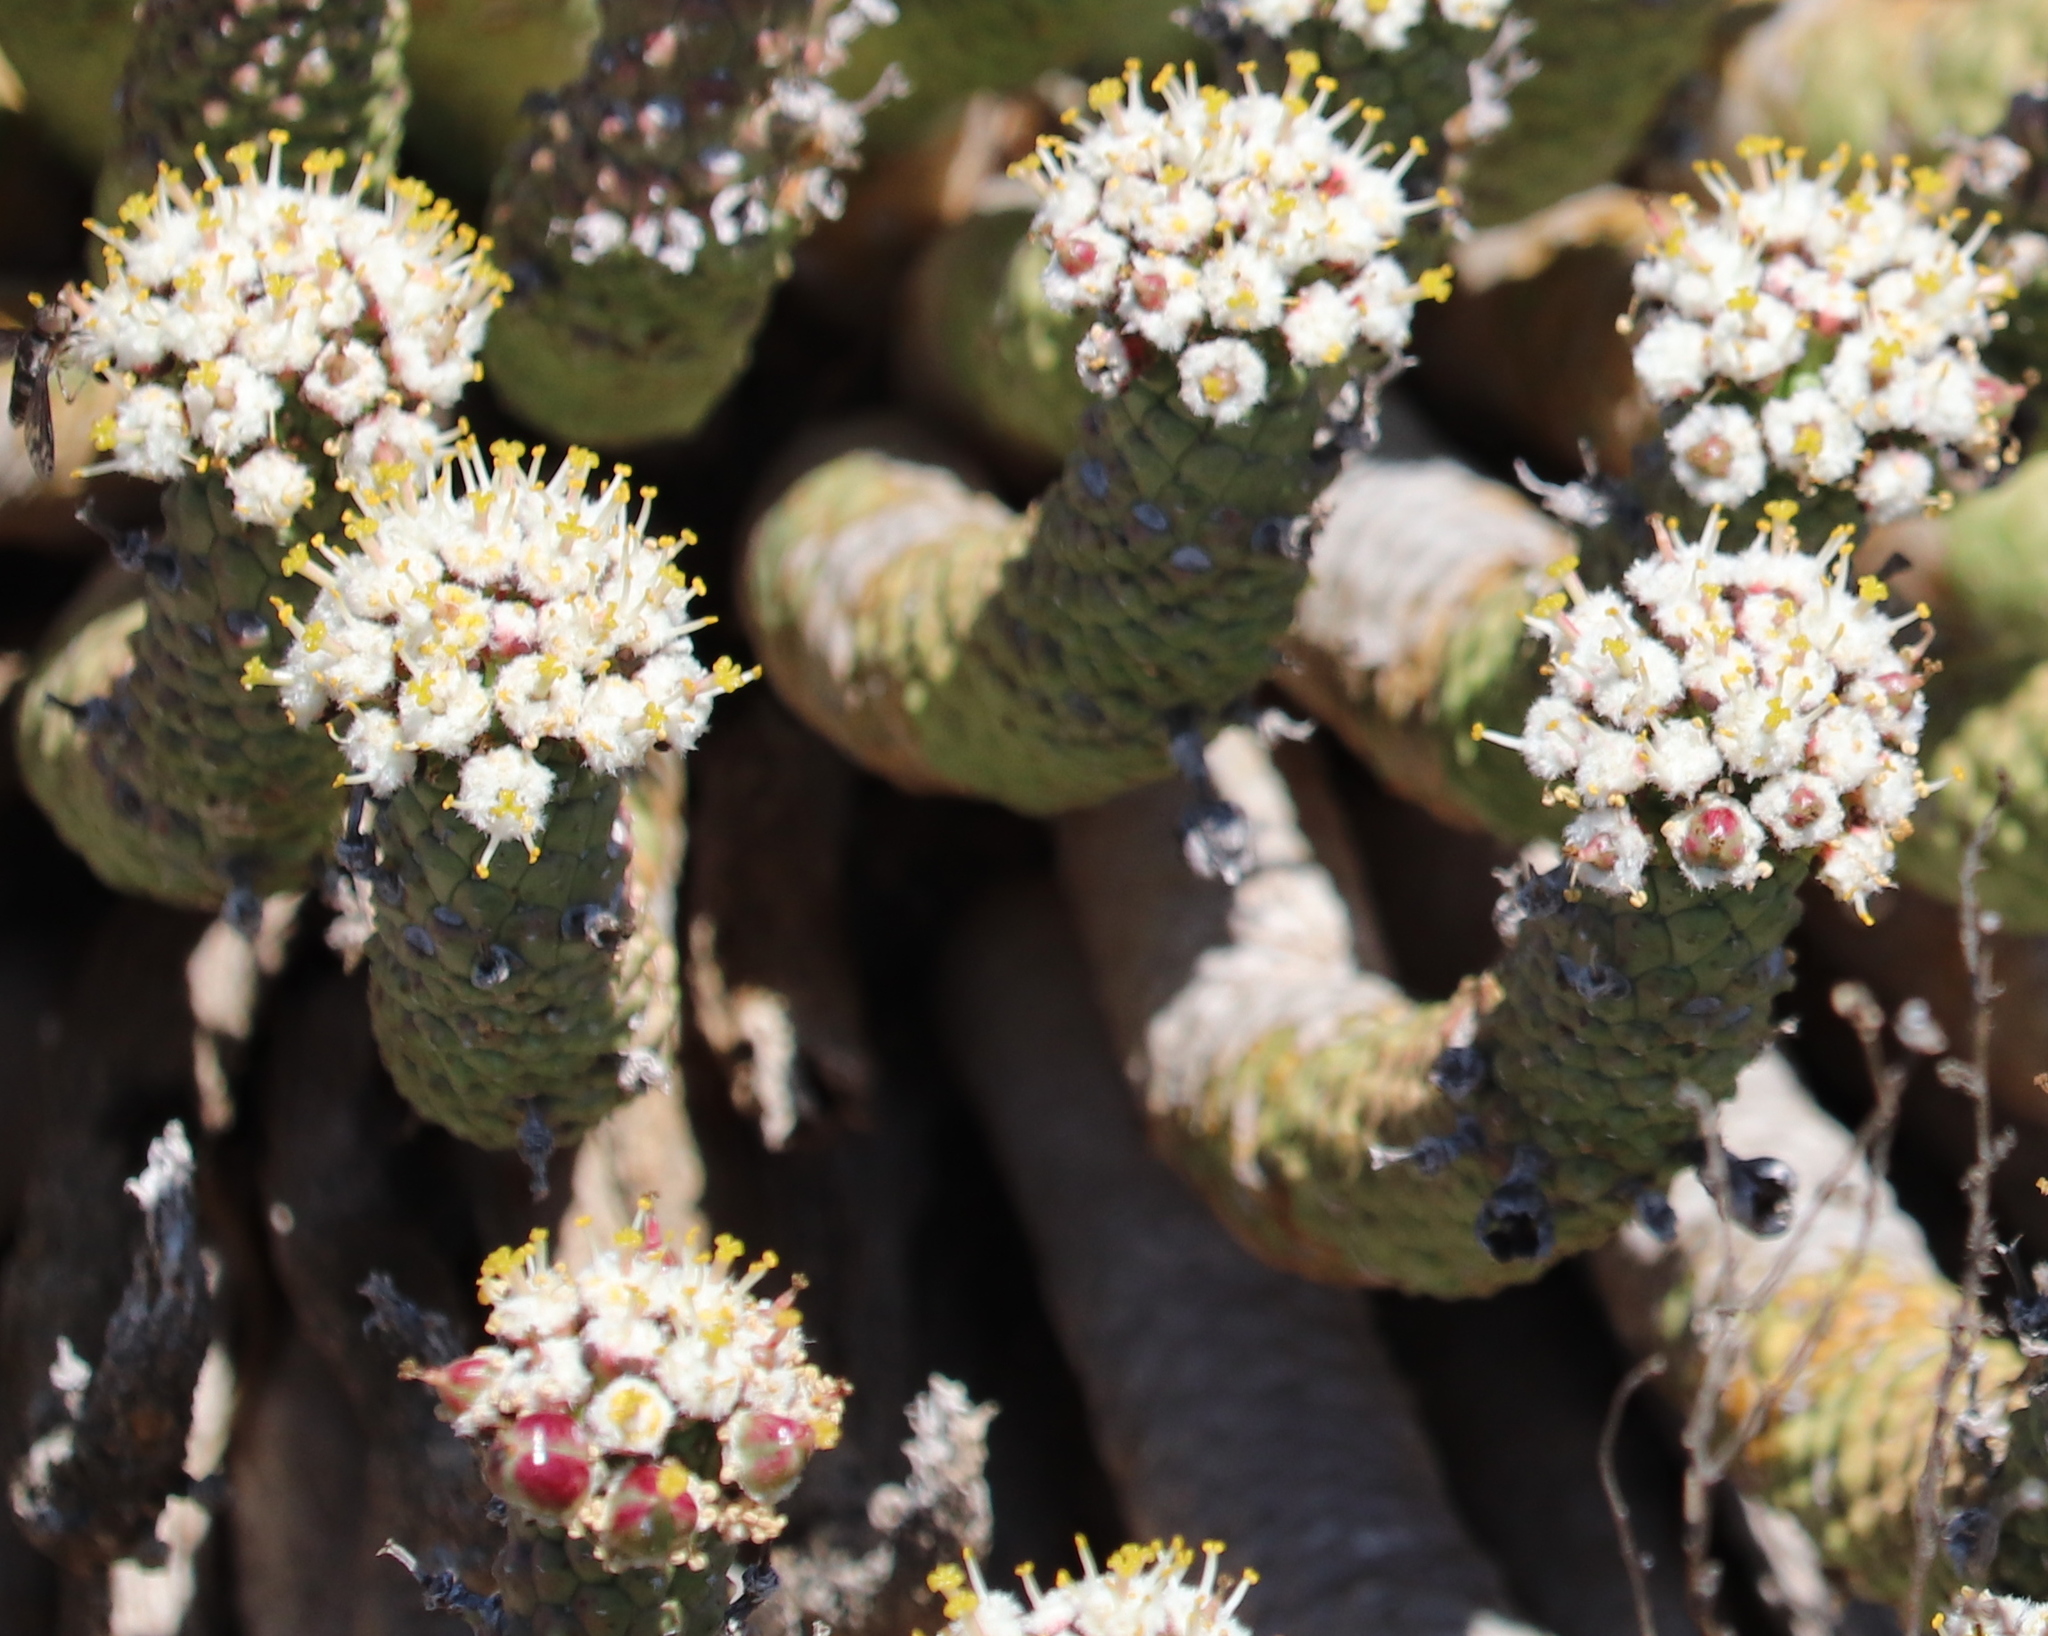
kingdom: Plantae
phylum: Tracheophyta
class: Magnoliopsida
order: Malpighiales
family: Euphorbiaceae
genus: Euphorbia
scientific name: Euphorbia esculenta
